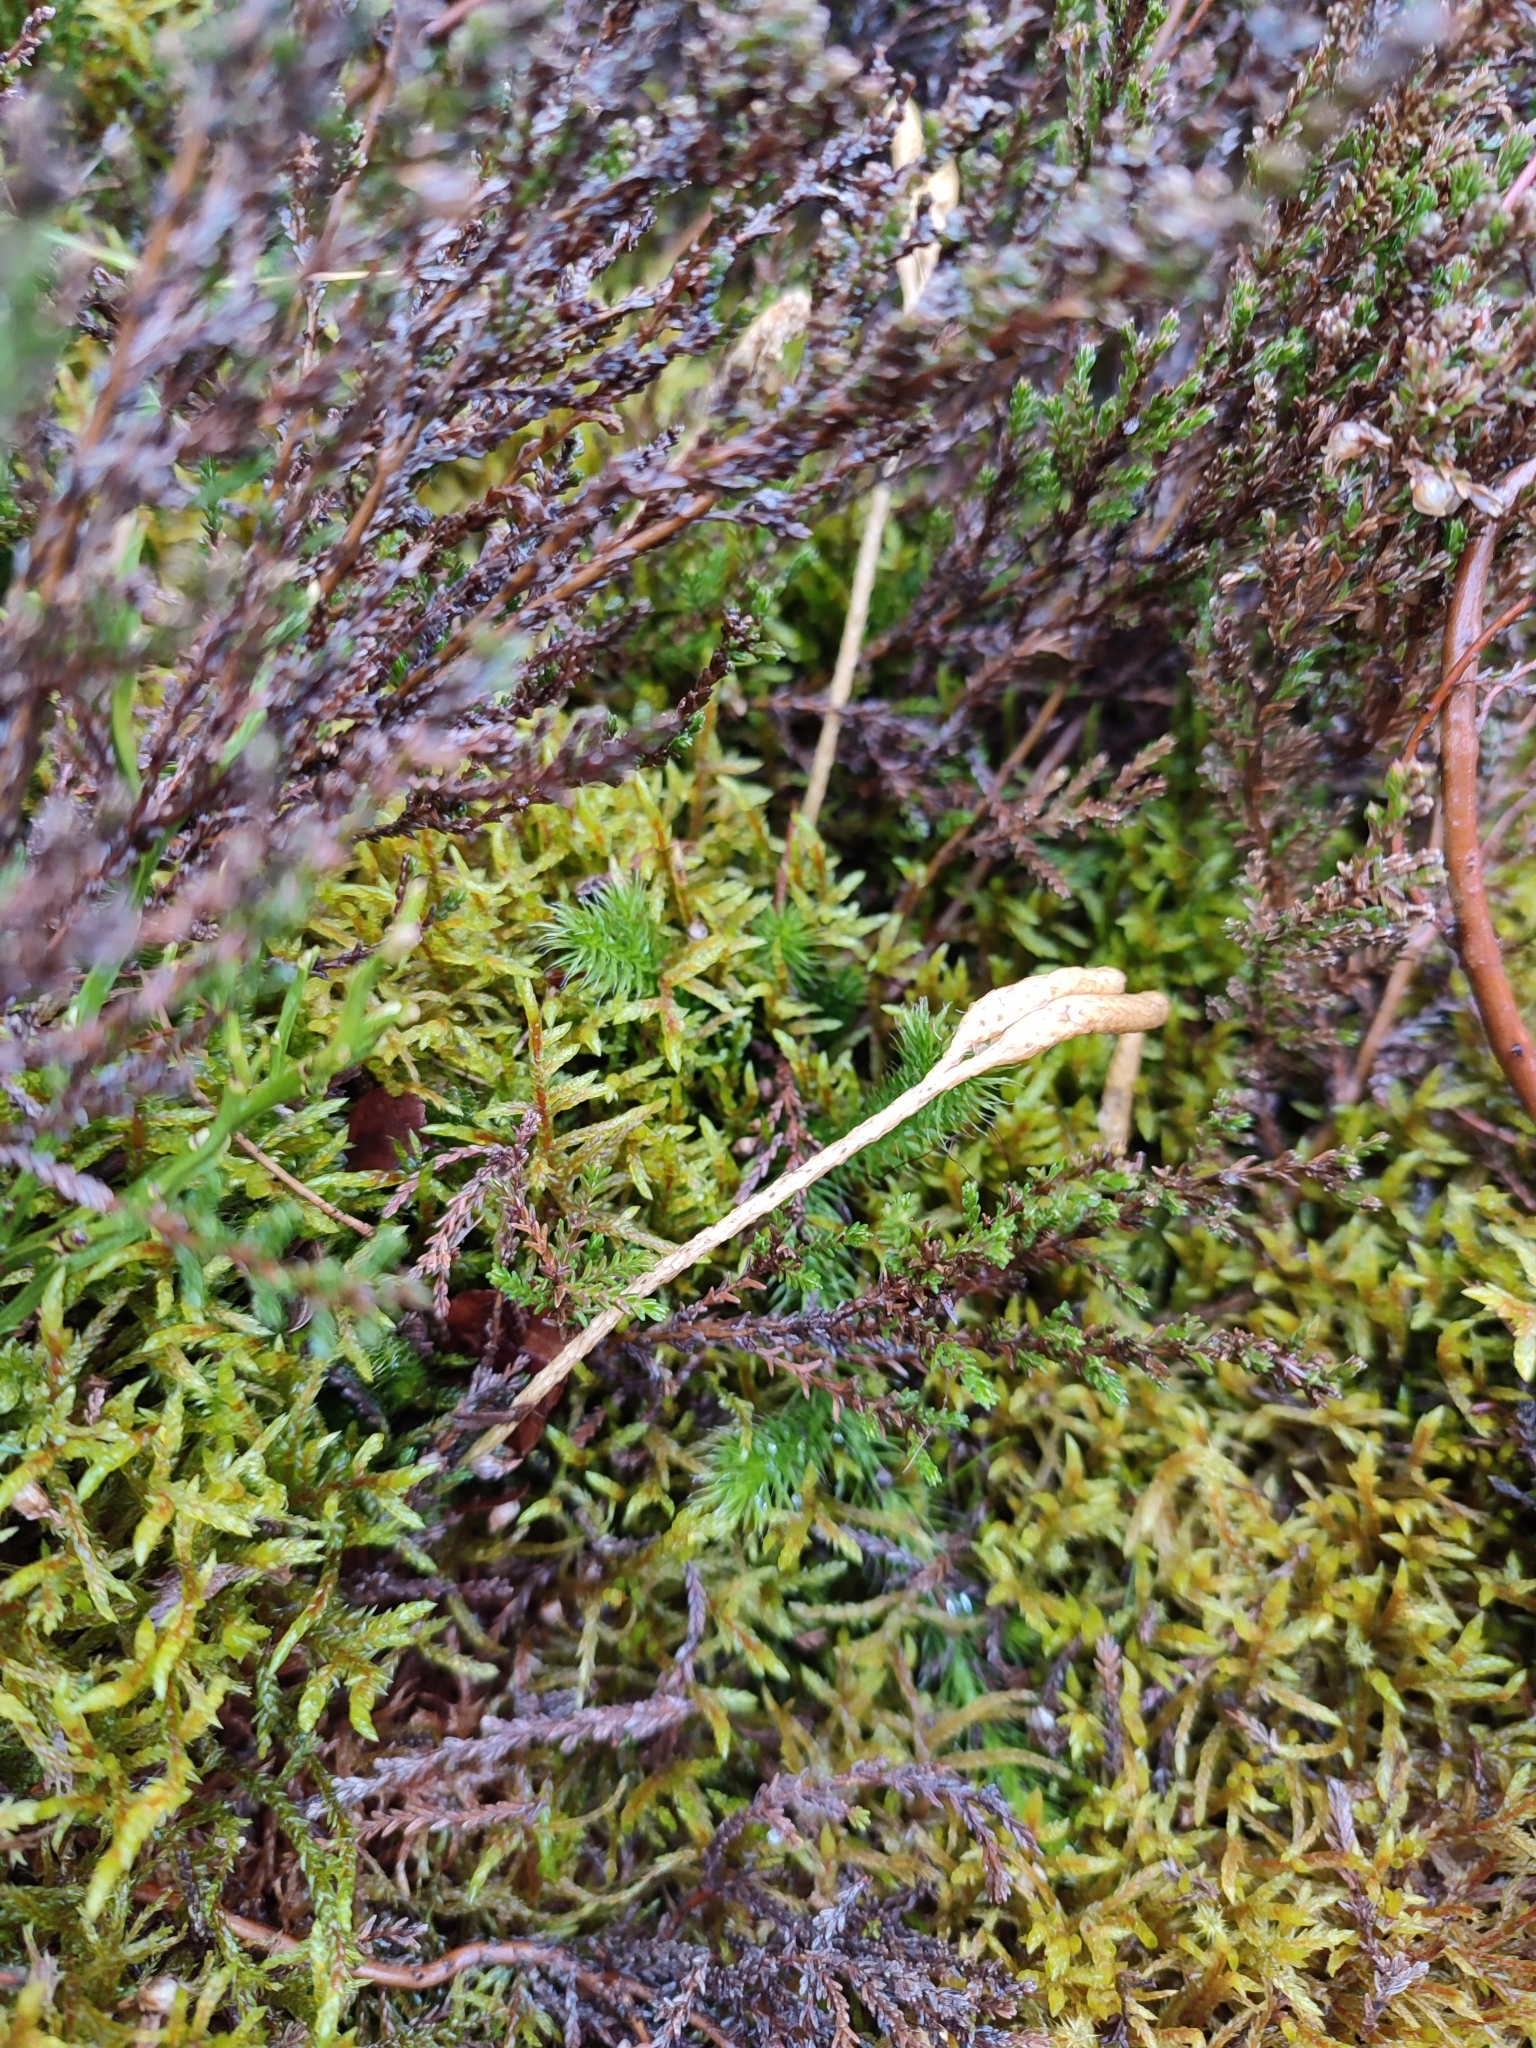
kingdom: Plantae
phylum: Tracheophyta
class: Lycopodiopsida
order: Lycopodiales
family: Lycopodiaceae
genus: Lycopodium
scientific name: Lycopodium clavatum
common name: Stag's-horn clubmoss
